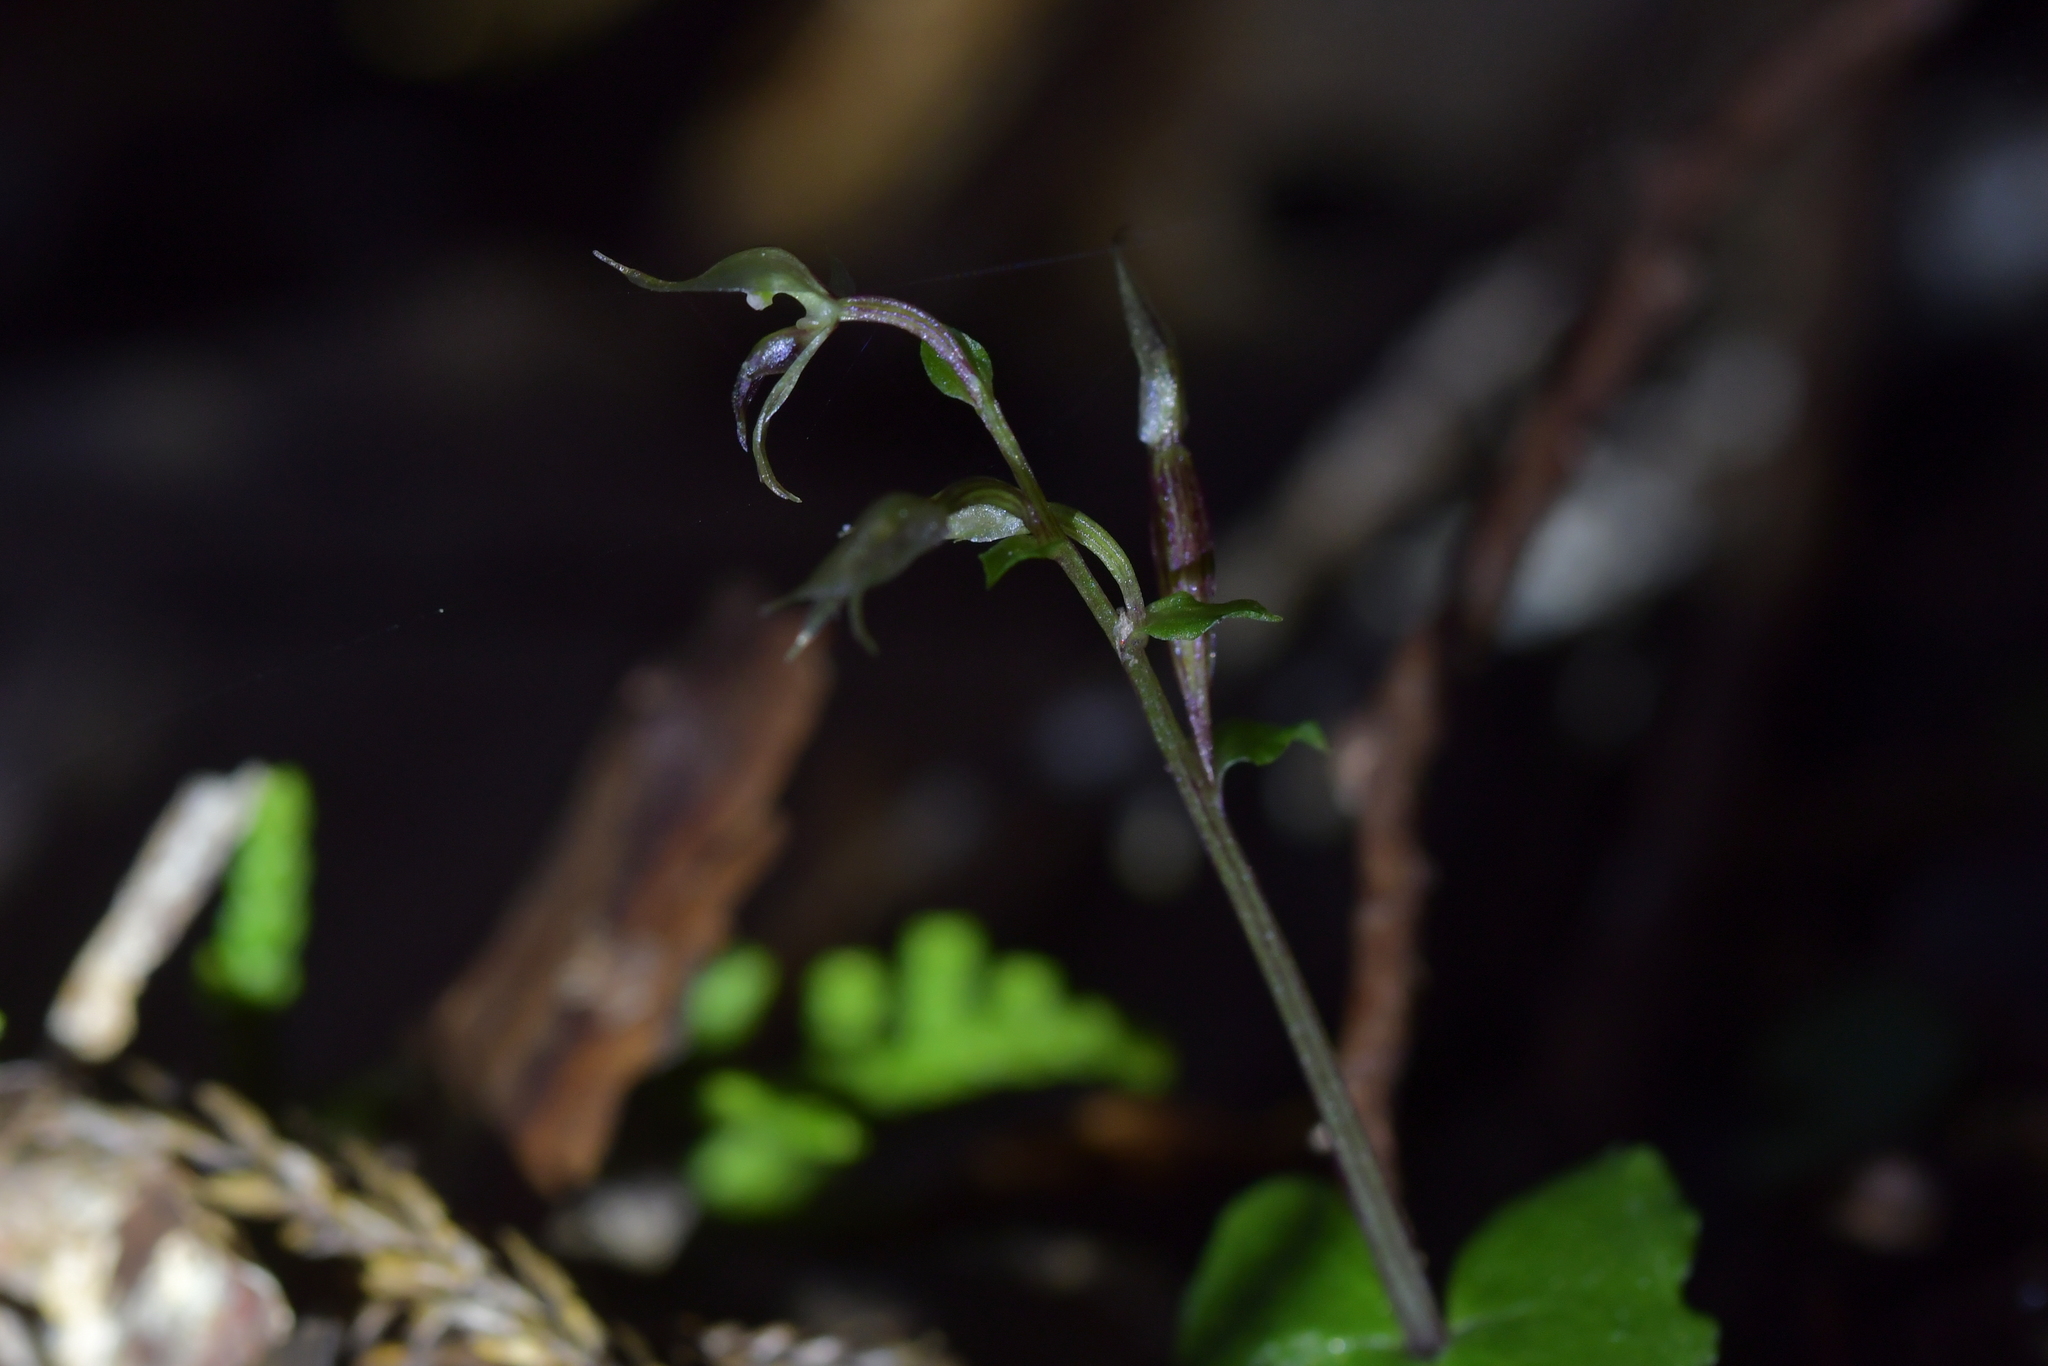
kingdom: Plantae
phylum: Tracheophyta
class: Liliopsida
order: Asparagales
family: Orchidaceae
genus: Acianthus
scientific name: Acianthus sinclairii
